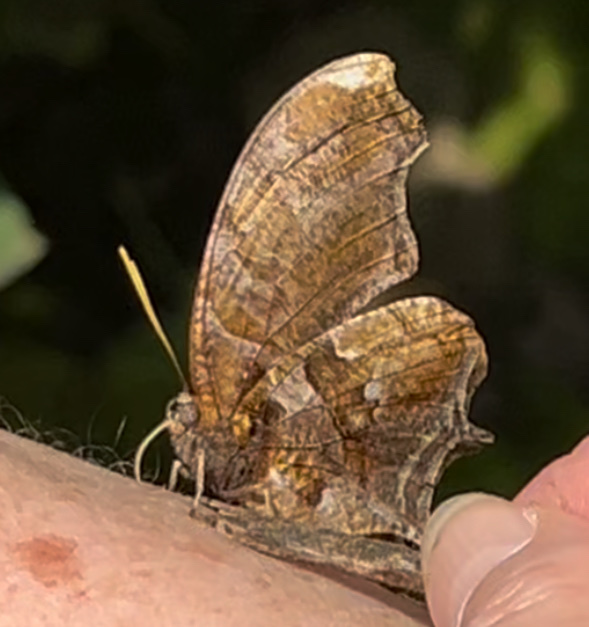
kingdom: Animalia
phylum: Arthropoda
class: Insecta
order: Lepidoptera
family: Nymphalidae
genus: Consul
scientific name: Consul fabius
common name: Tiger leafwing
